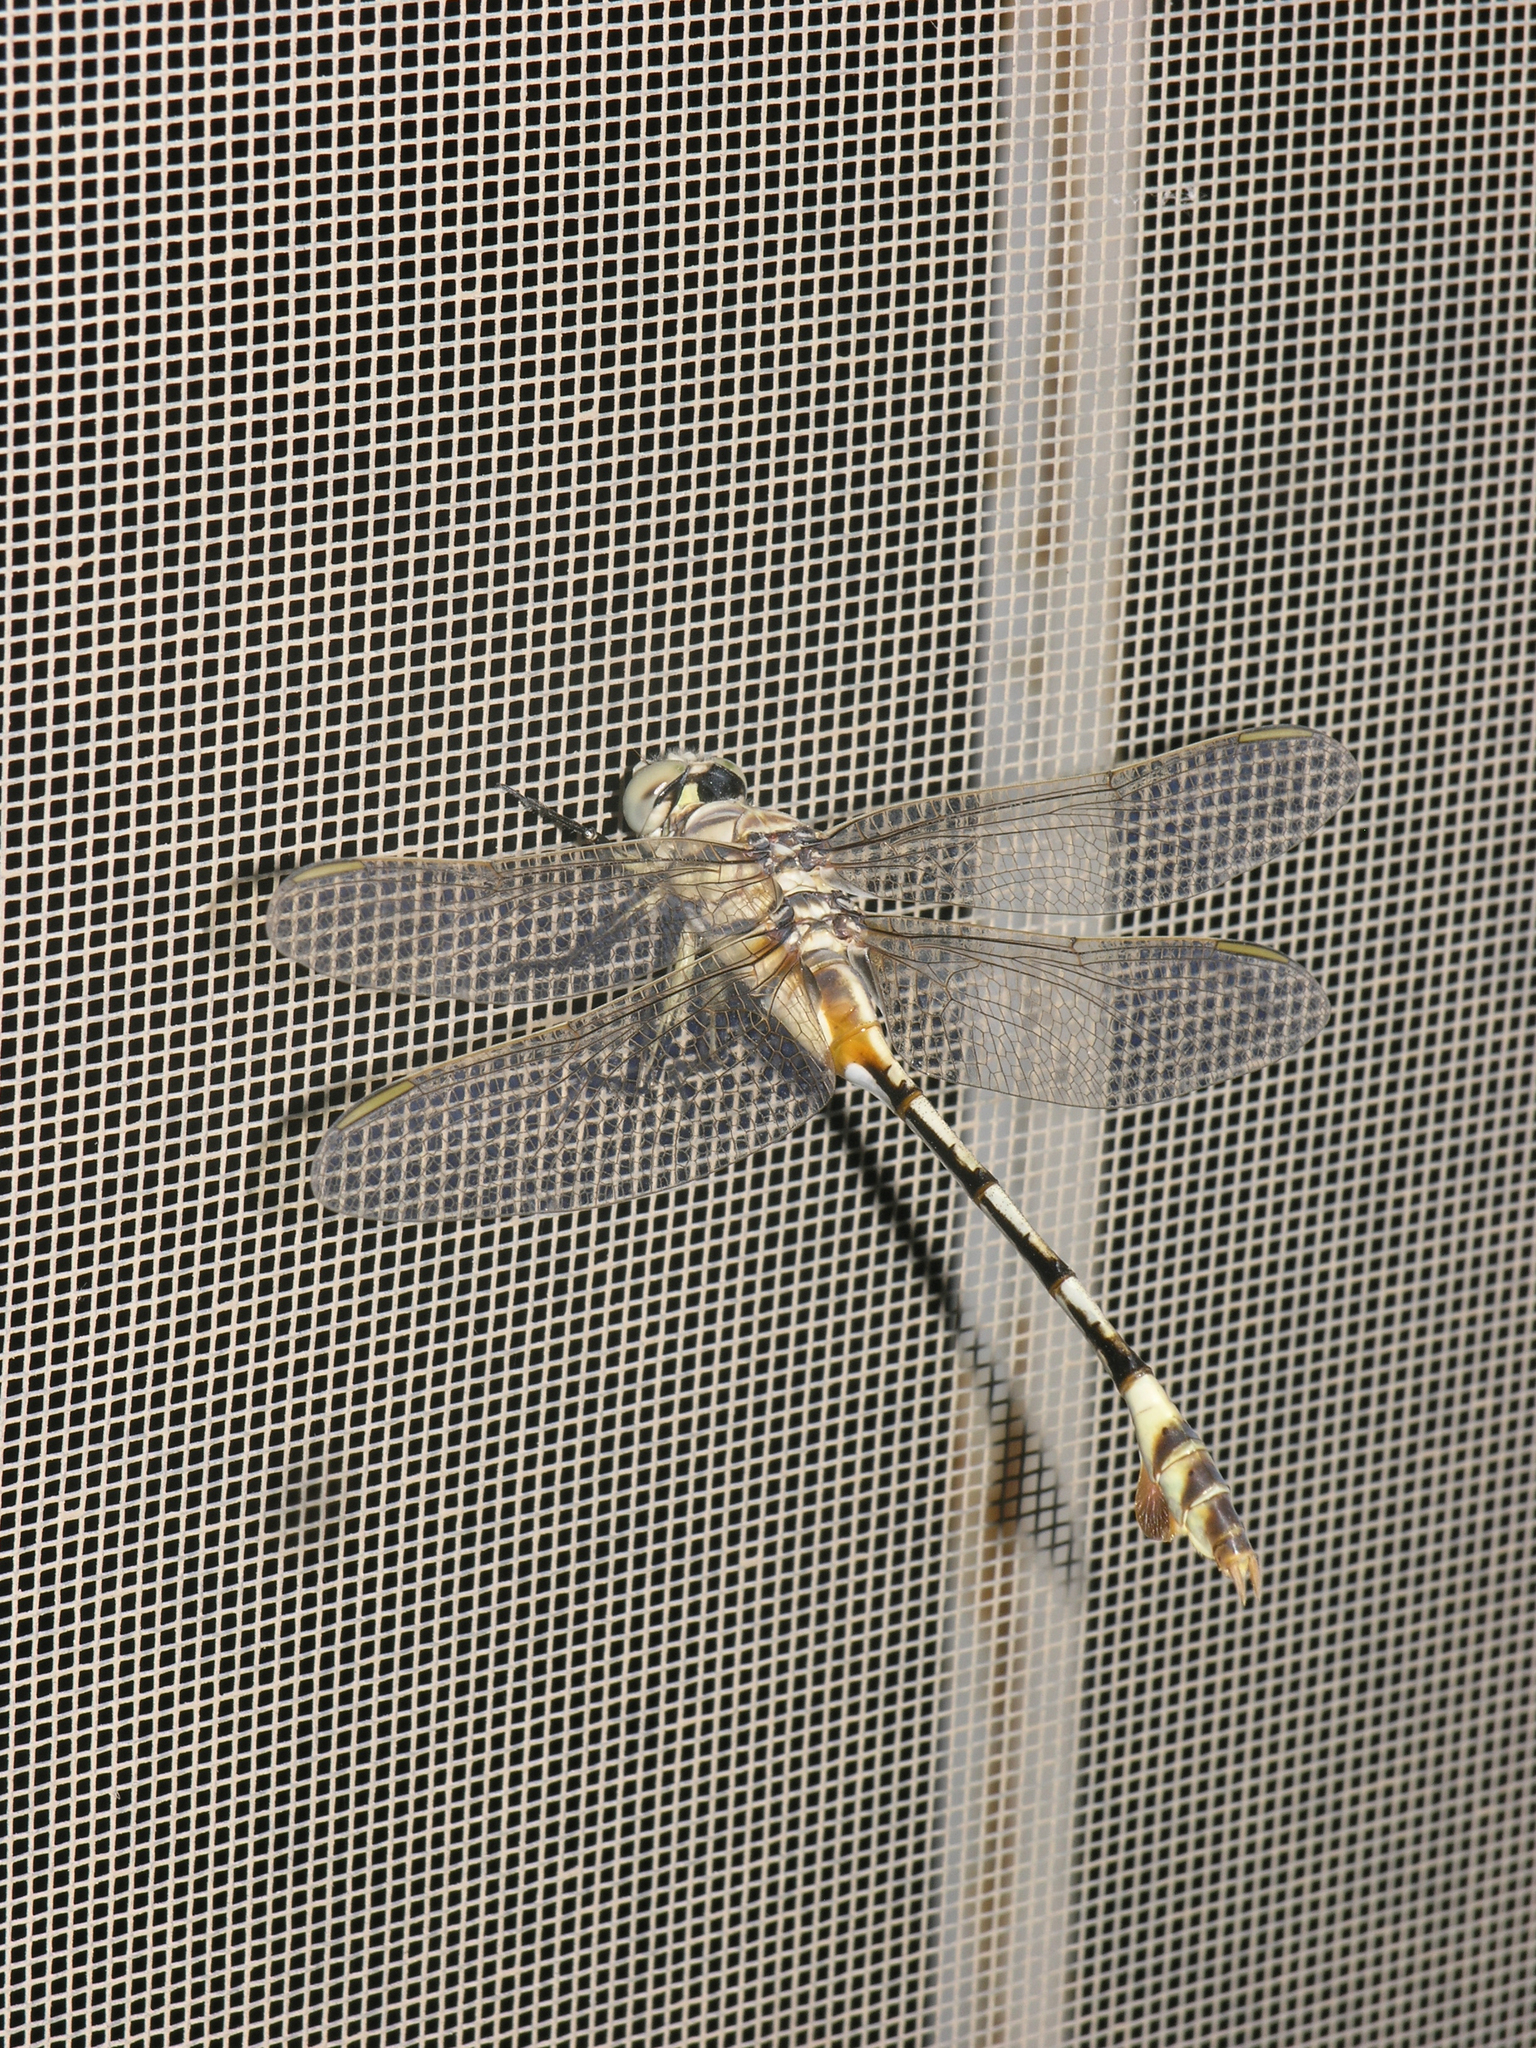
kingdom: Animalia
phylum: Arthropoda
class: Insecta
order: Odonata
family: Gomphidae
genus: Lindenia
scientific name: Lindenia tetraphylla
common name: Bladetail
